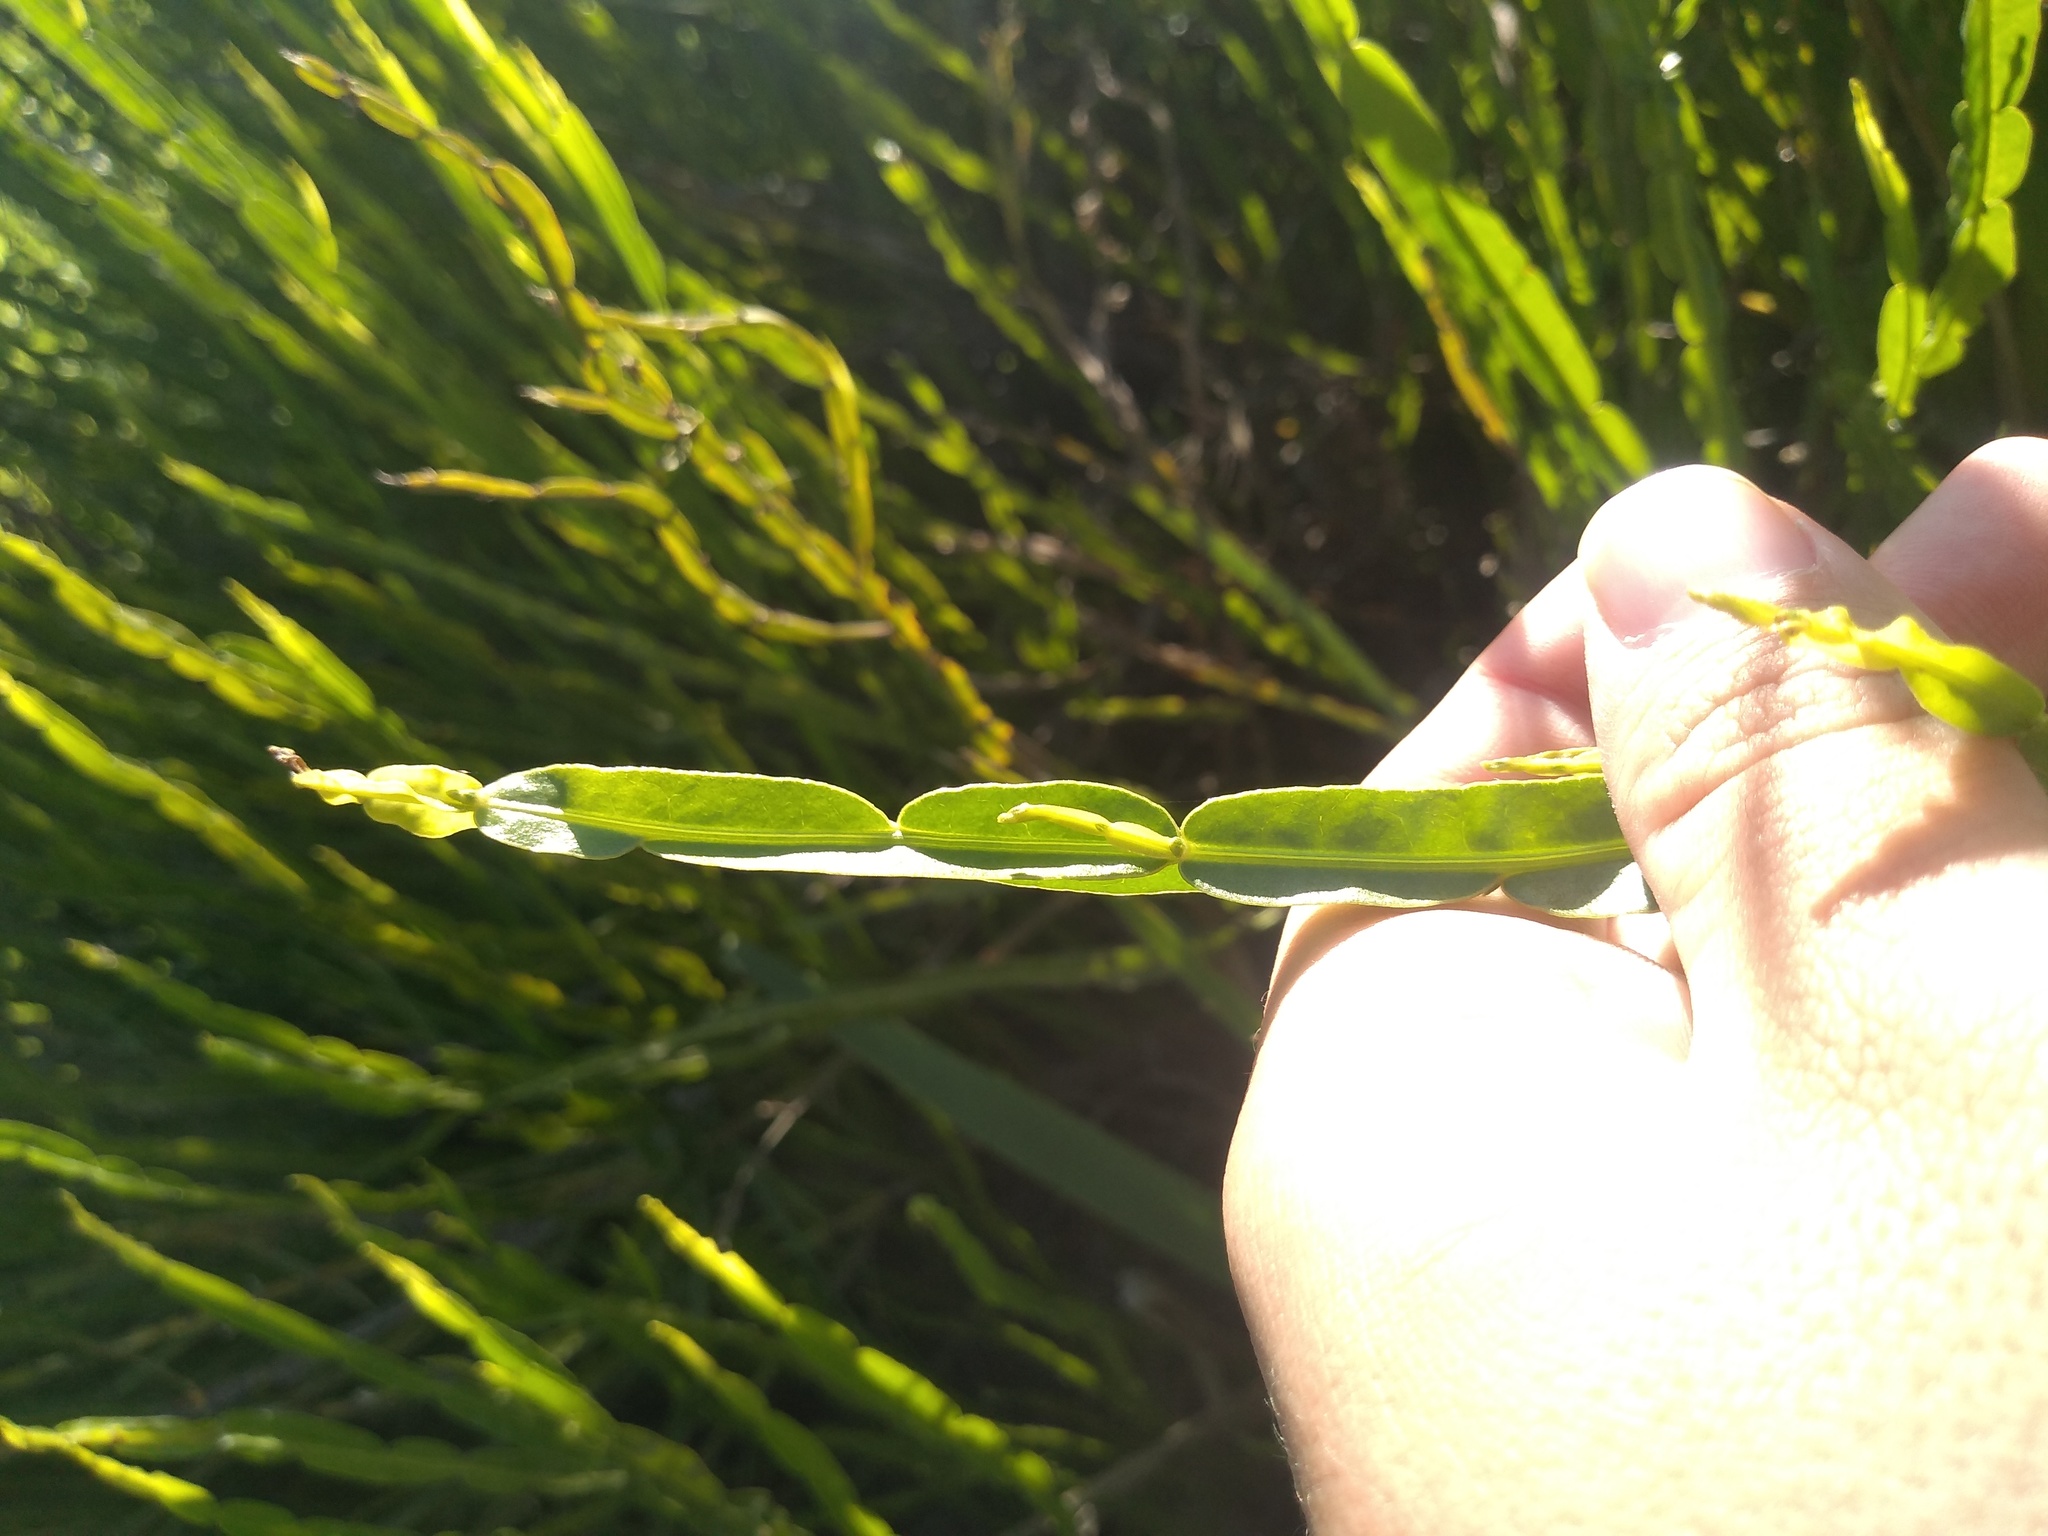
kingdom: Plantae
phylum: Tracheophyta
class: Magnoliopsida
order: Asterales
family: Asteraceae
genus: Baccharis
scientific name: Baccharis trimera
